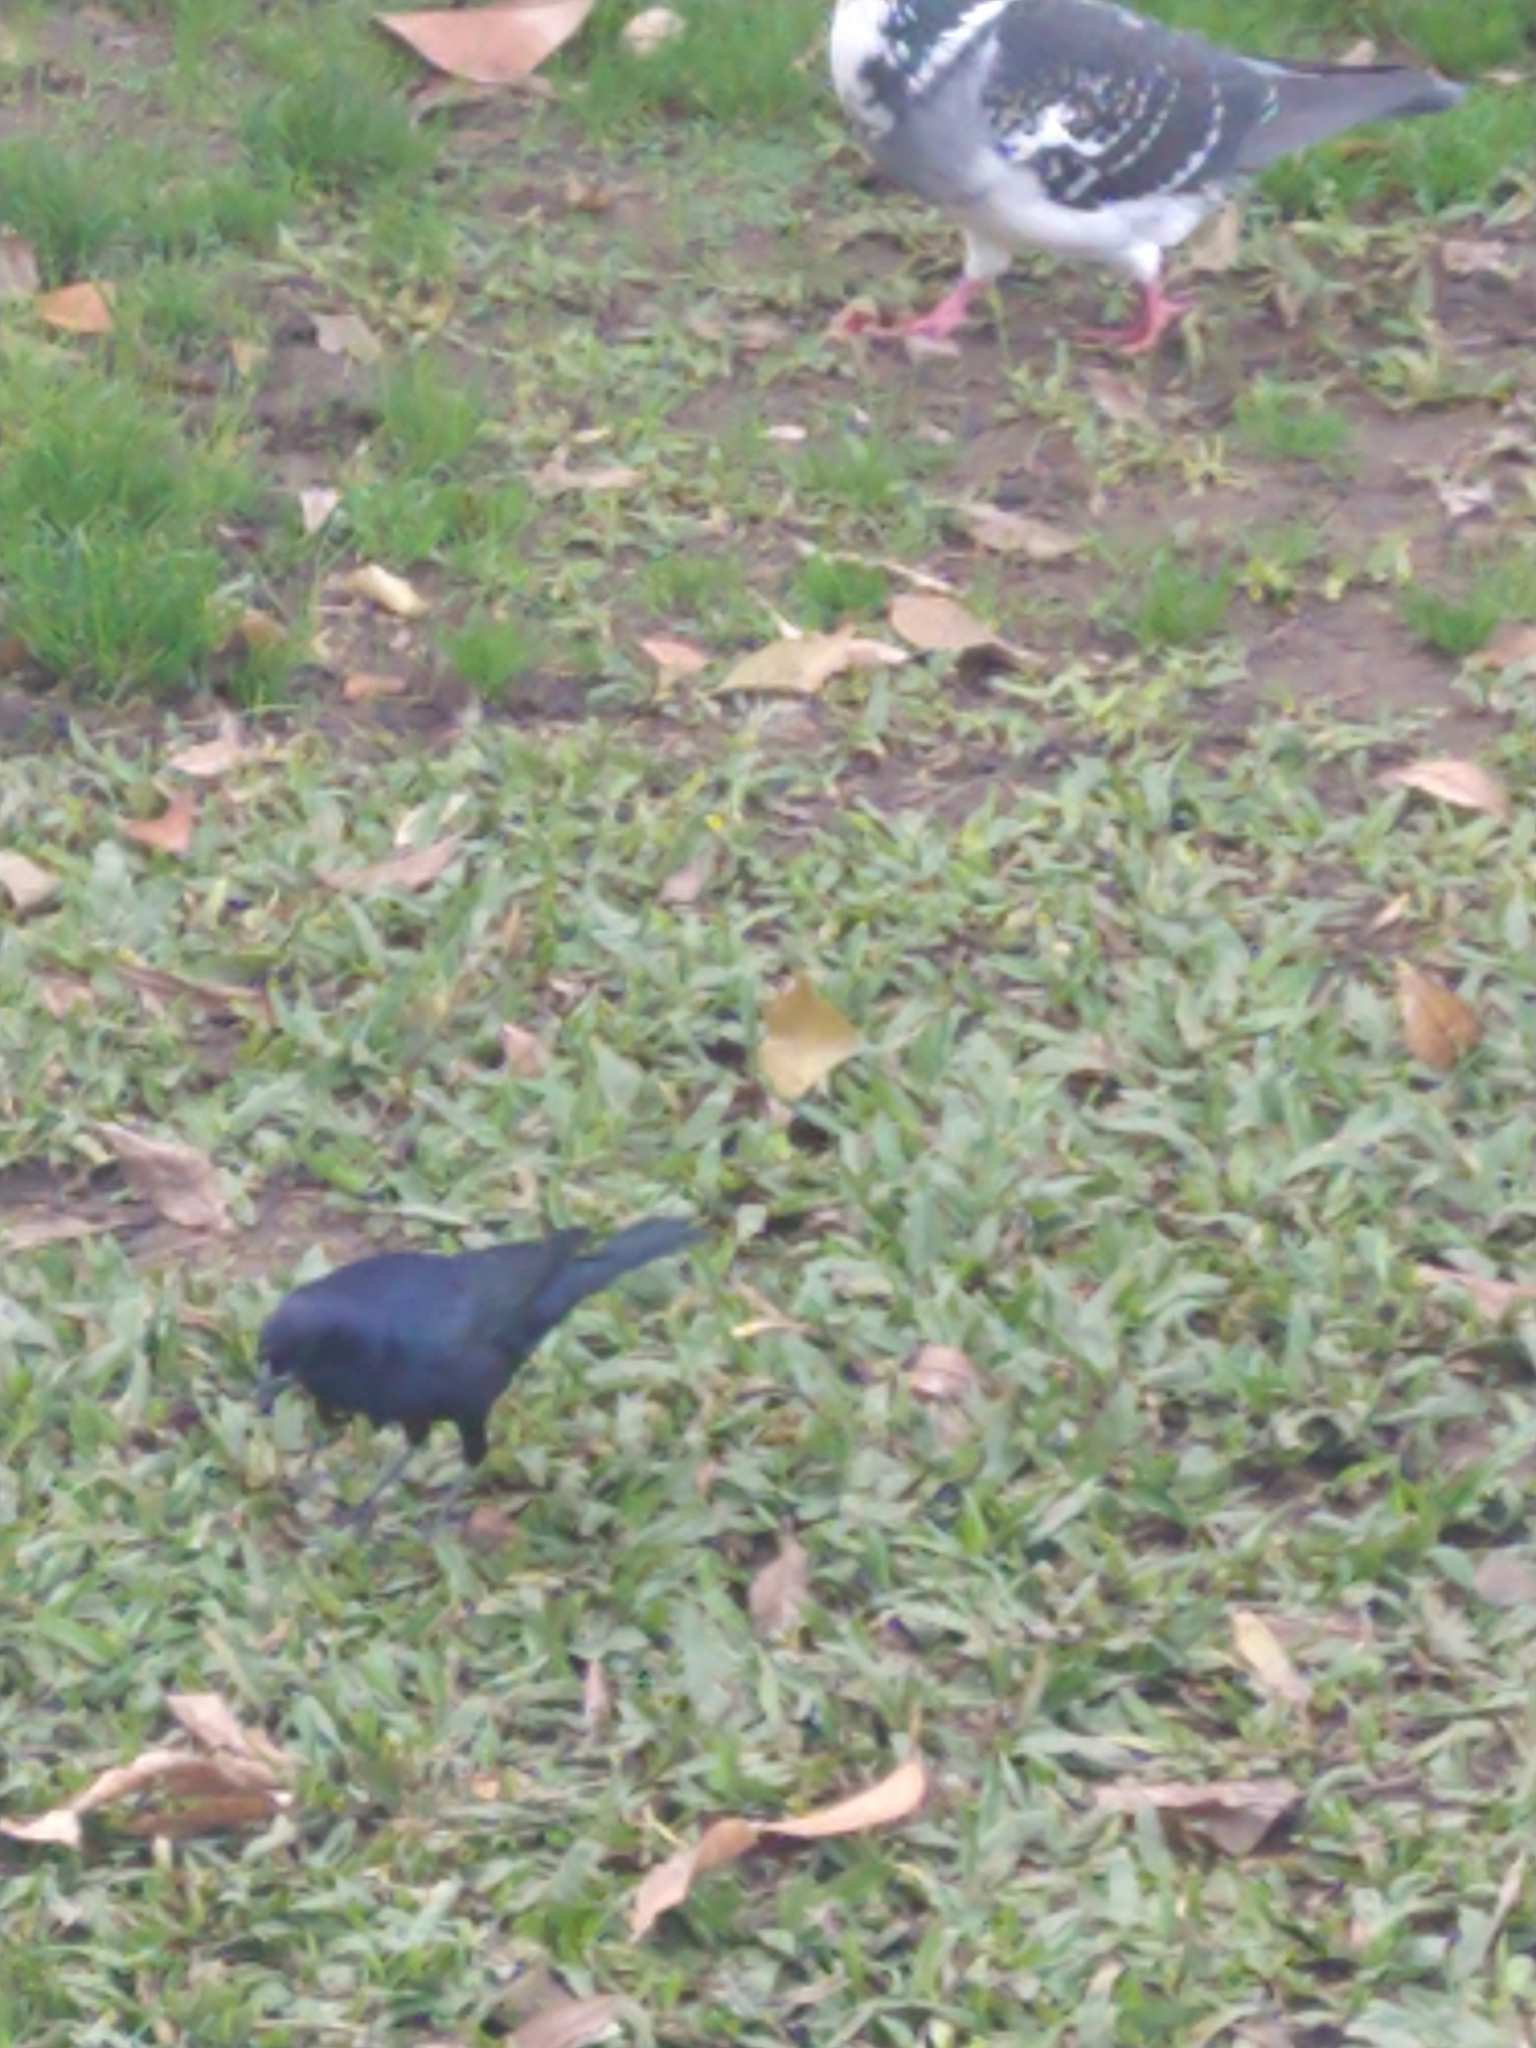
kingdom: Animalia
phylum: Chordata
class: Aves
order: Passeriformes
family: Icteridae
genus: Molothrus
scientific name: Molothrus bonariensis
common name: Shiny cowbird
